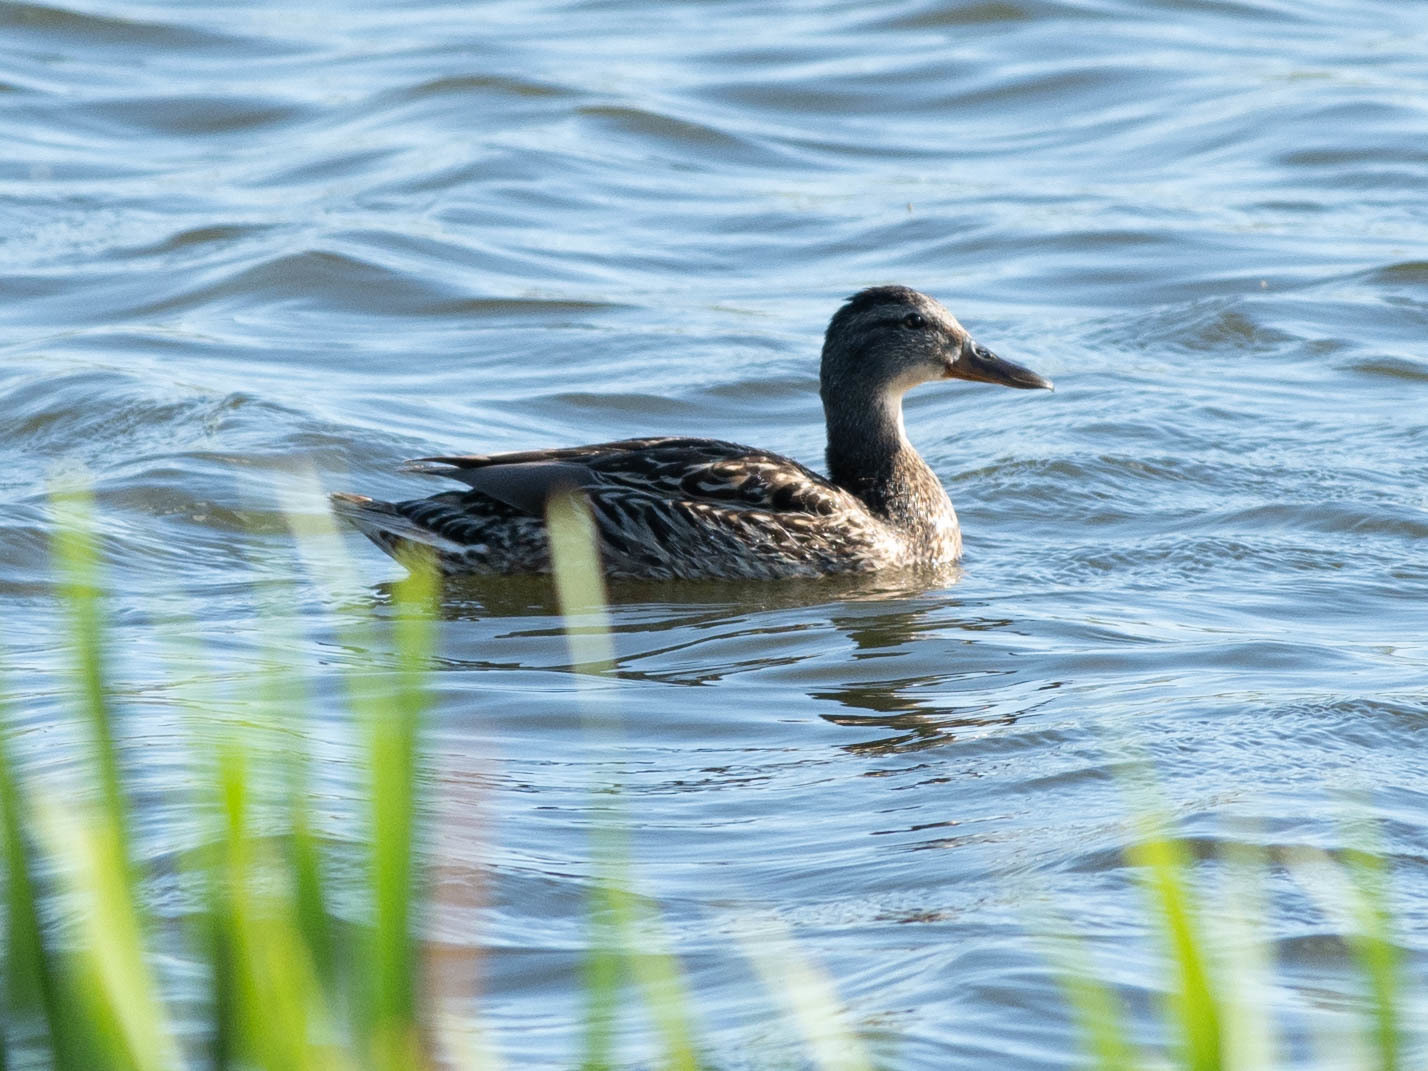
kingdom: Animalia
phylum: Chordata
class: Aves
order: Anseriformes
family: Anatidae
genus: Anas
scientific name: Anas platyrhynchos
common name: Mallard
